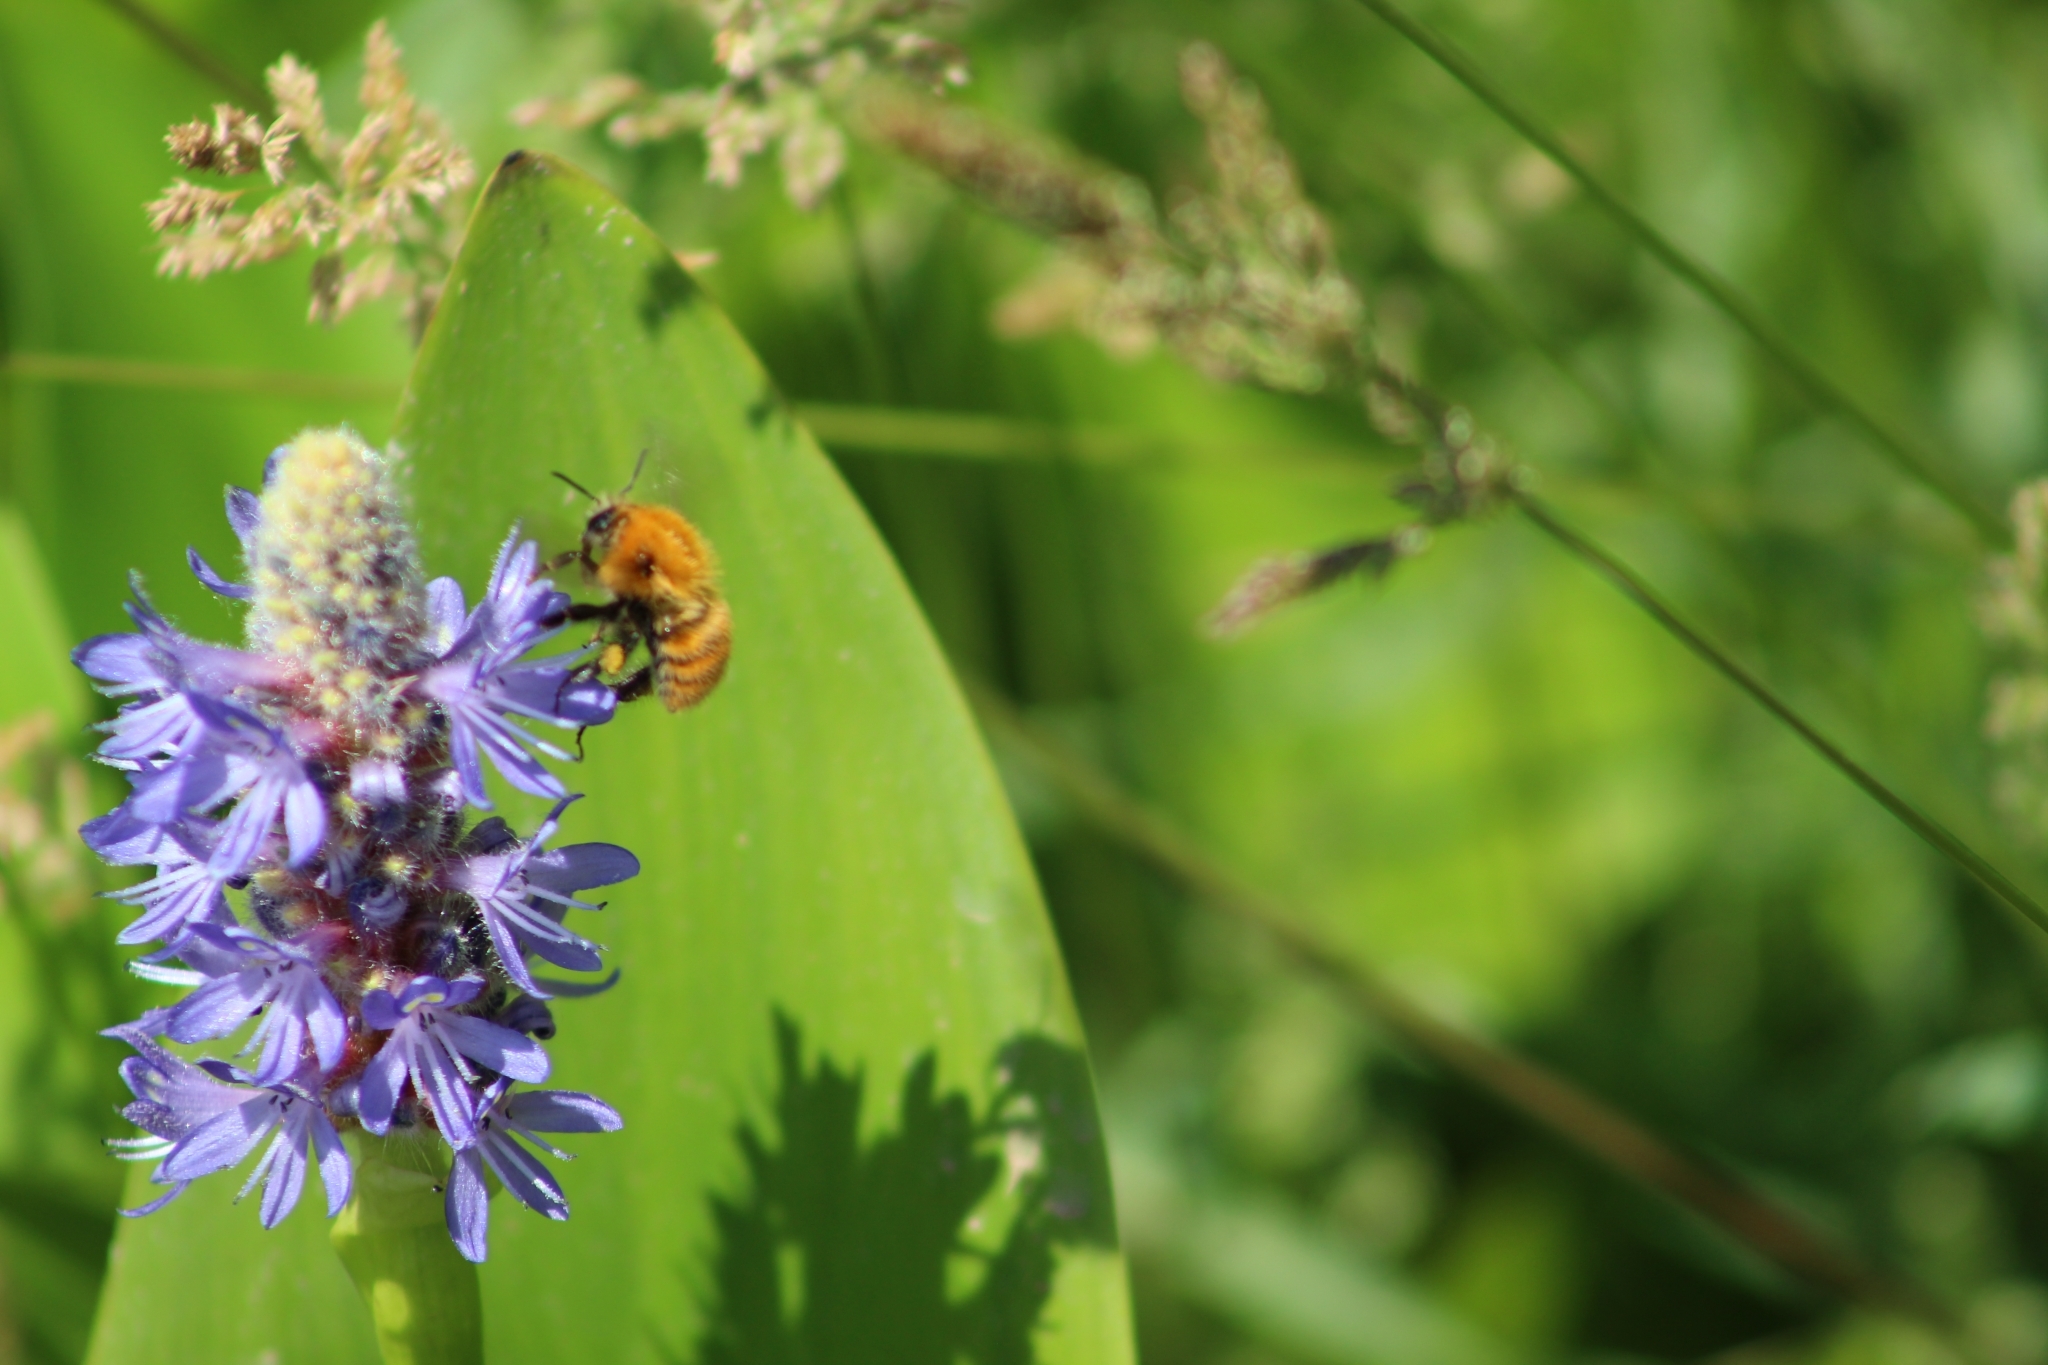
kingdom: Animalia
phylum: Arthropoda
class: Insecta
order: Hymenoptera
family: Apidae
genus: Bombus
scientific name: Bombus pascuorum
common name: Common carder bee
